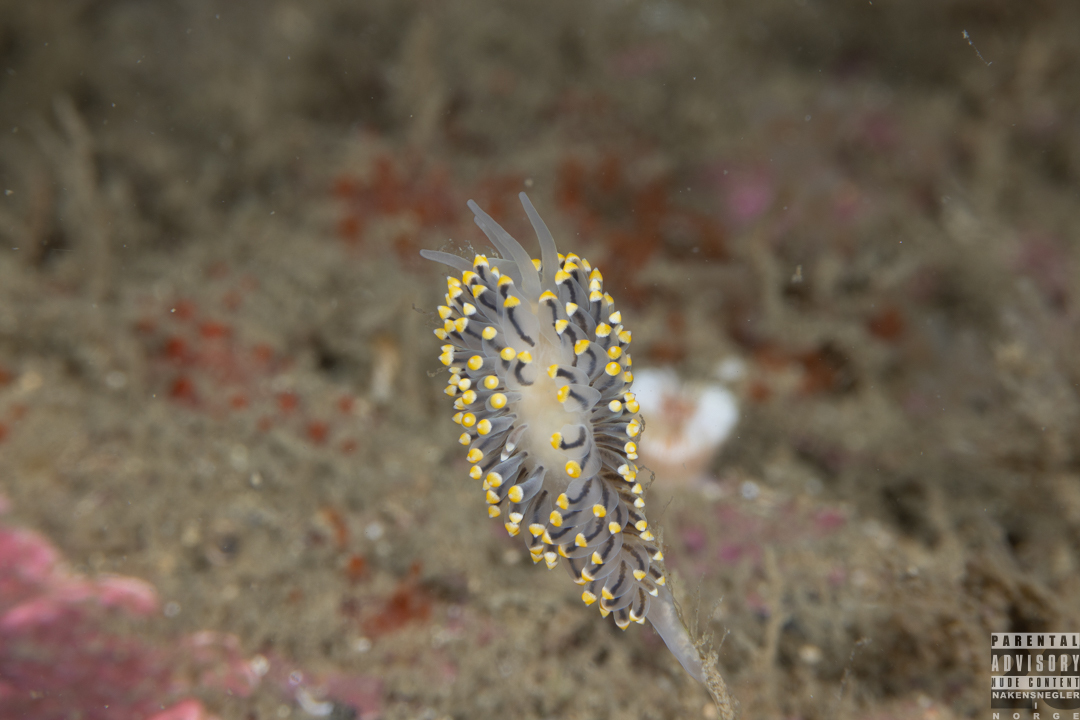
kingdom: Animalia
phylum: Mollusca
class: Gastropoda
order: Nudibranchia
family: Eubranchidae
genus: Eubranchus
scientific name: Eubranchus tricolor
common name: Painted balloon aeolis
